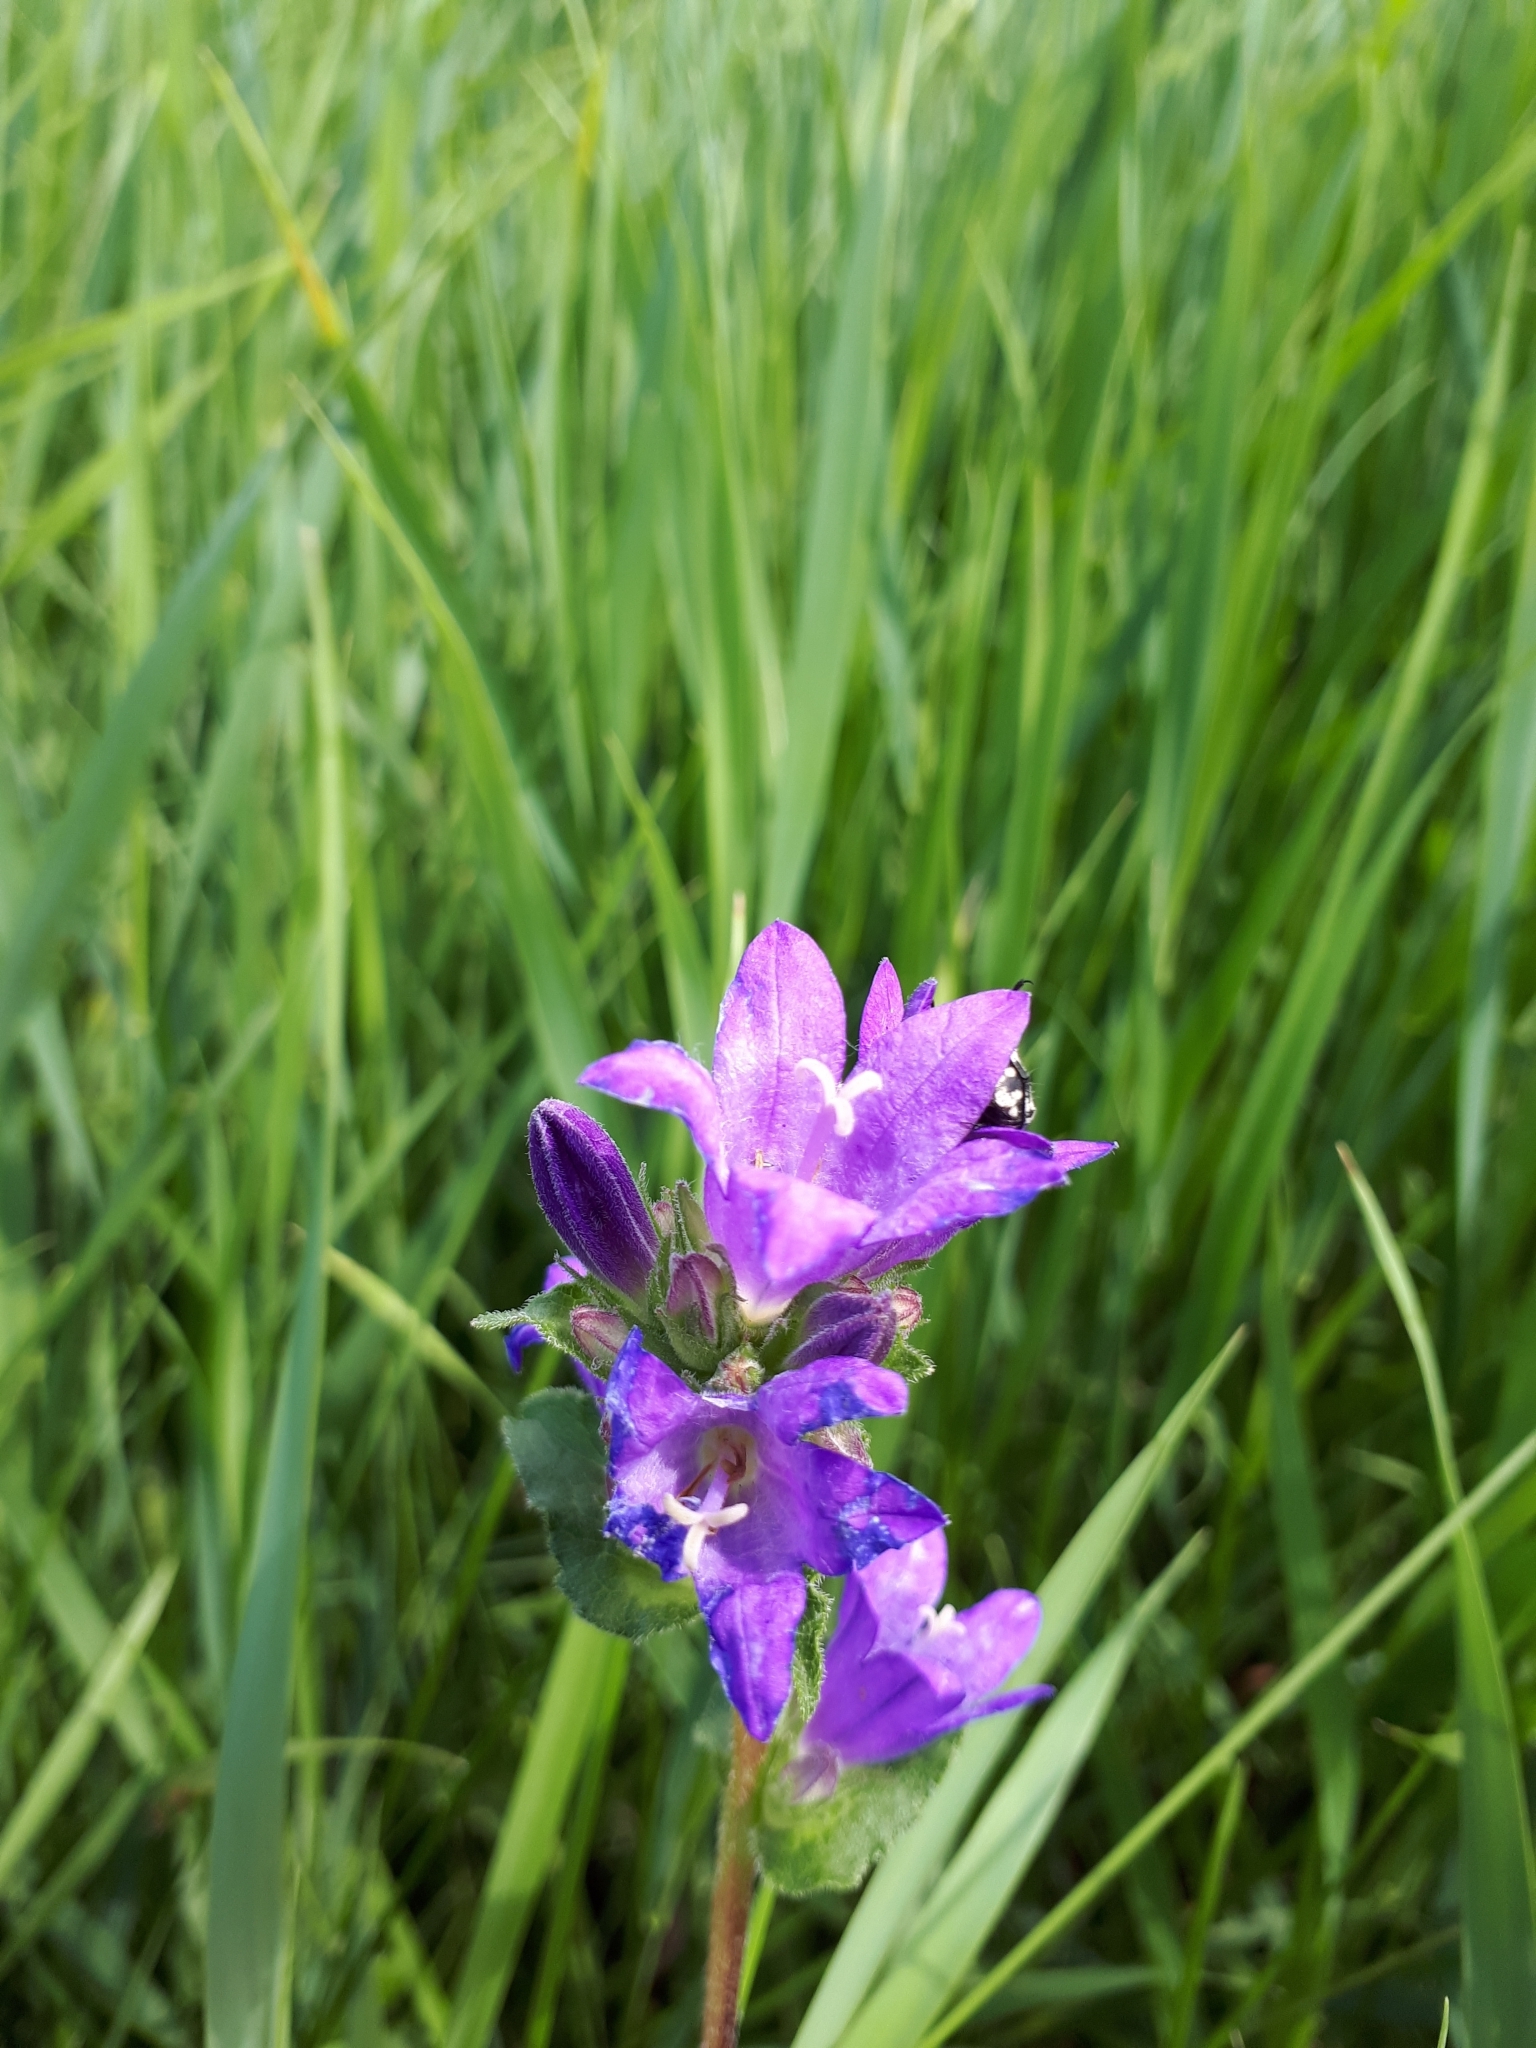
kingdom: Plantae
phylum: Tracheophyta
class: Magnoliopsida
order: Asterales
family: Campanulaceae
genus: Campanula
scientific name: Campanula glomerata
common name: Clustered bellflower
